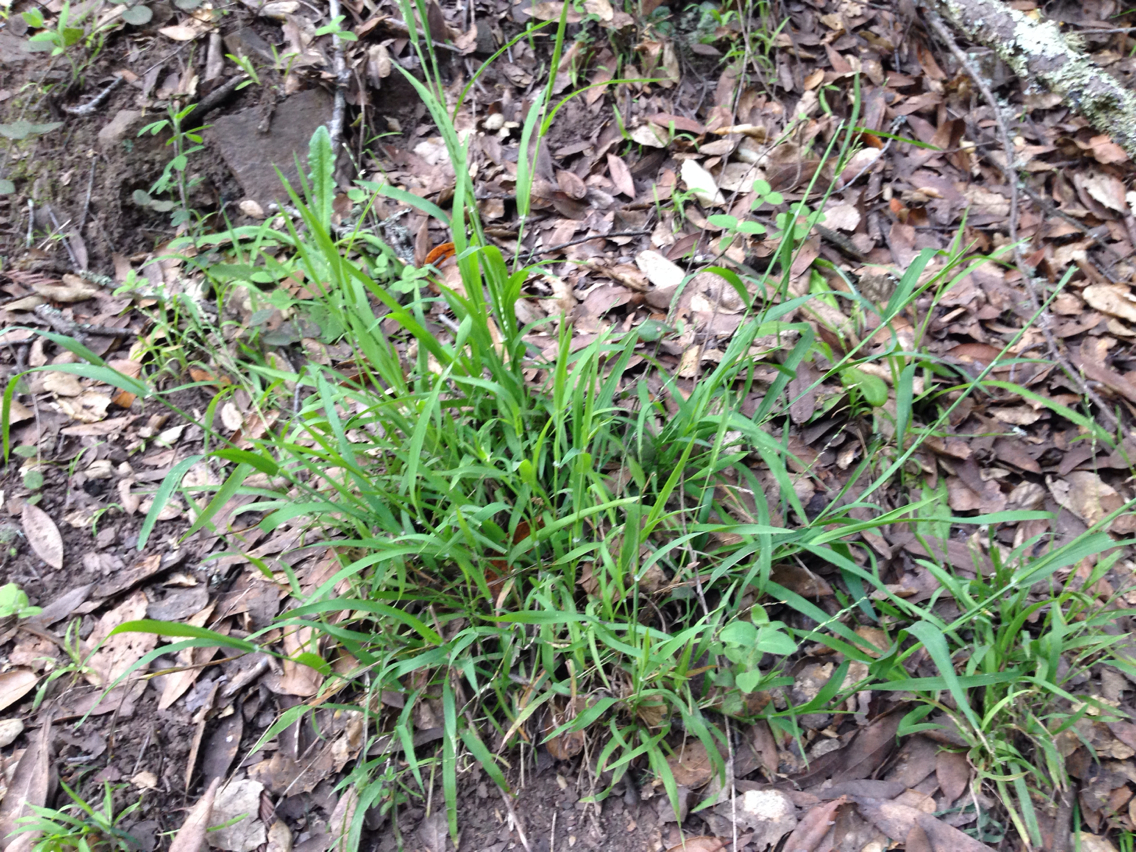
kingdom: Plantae
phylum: Tracheophyta
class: Liliopsida
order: Poales
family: Poaceae
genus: Ehrharta
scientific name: Ehrharta erecta
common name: Panic veldtgrass
